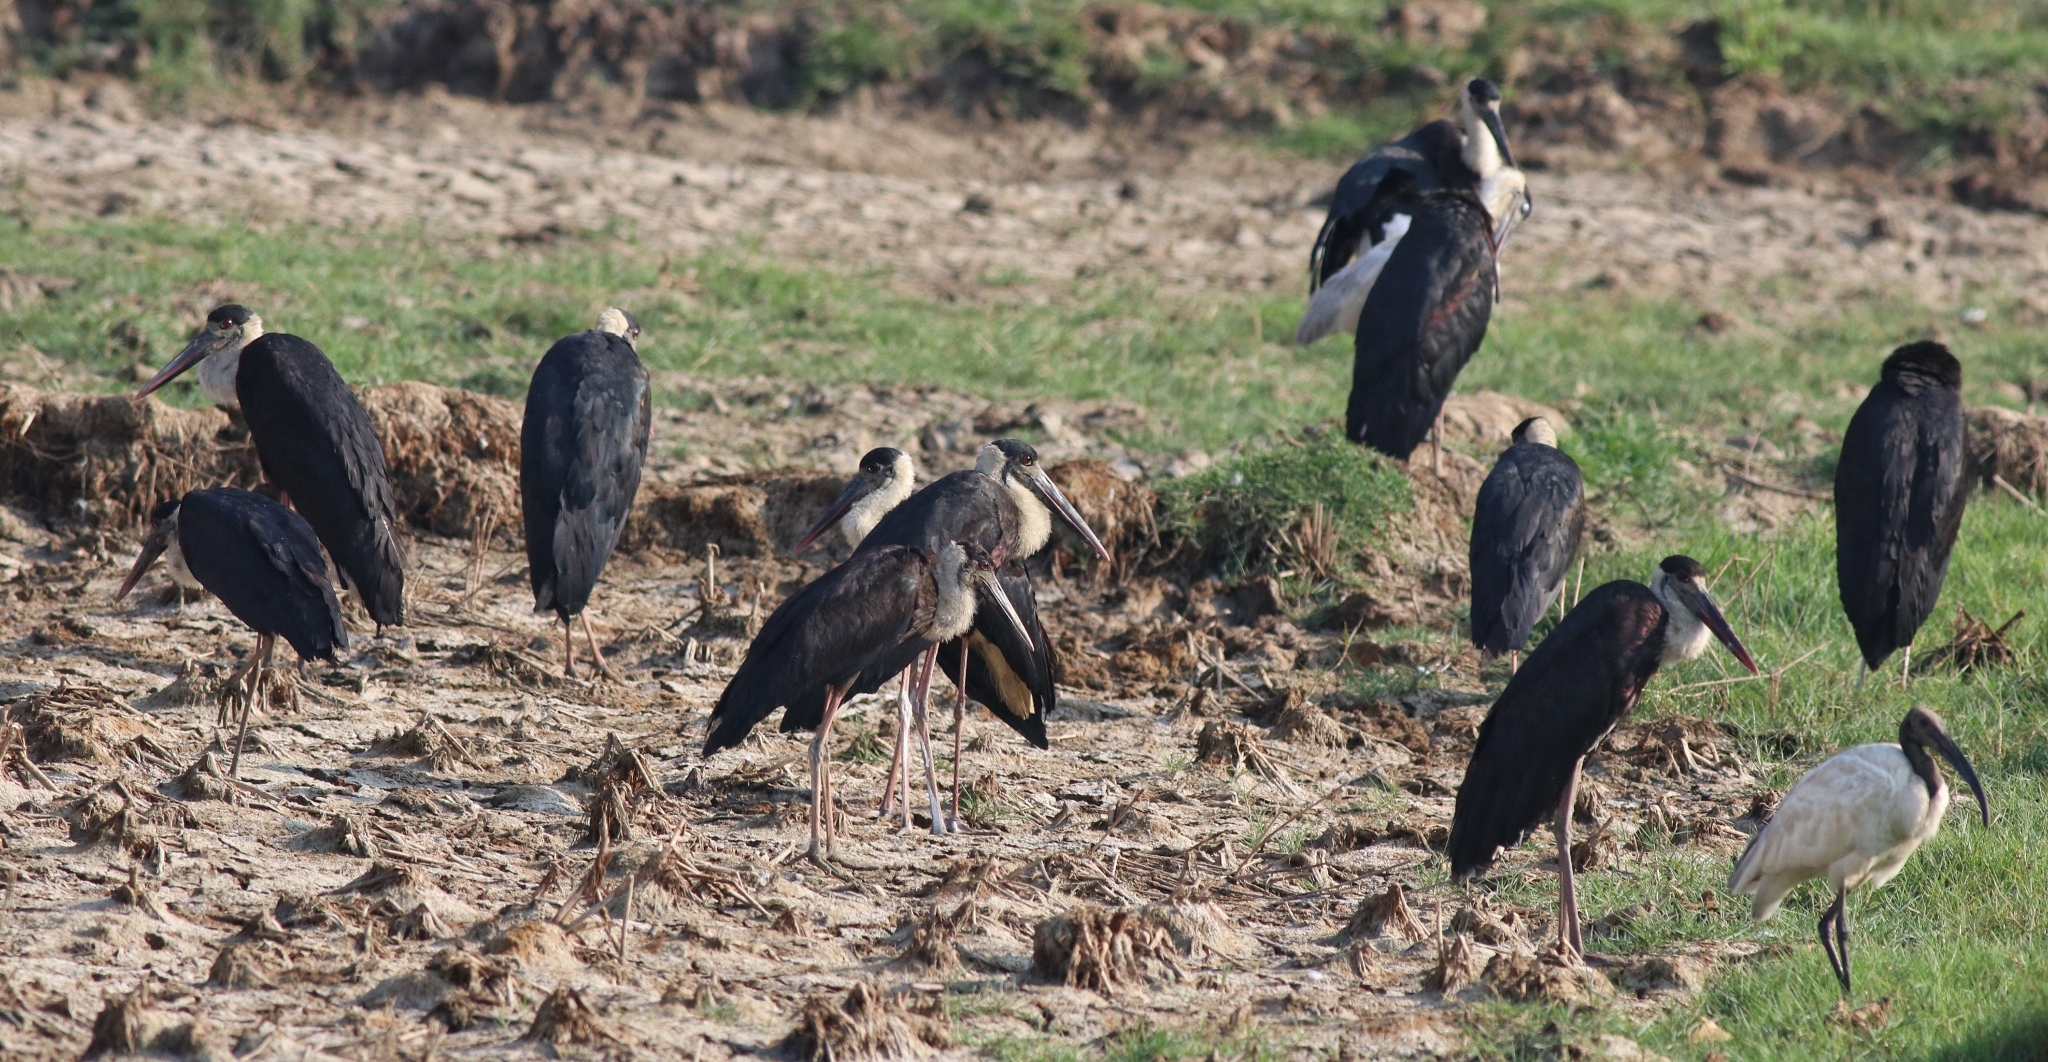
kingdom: Animalia
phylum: Chordata
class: Aves
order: Ciconiiformes
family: Ciconiidae
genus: Ciconia
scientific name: Ciconia episcopus
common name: Woolly-necked stork
